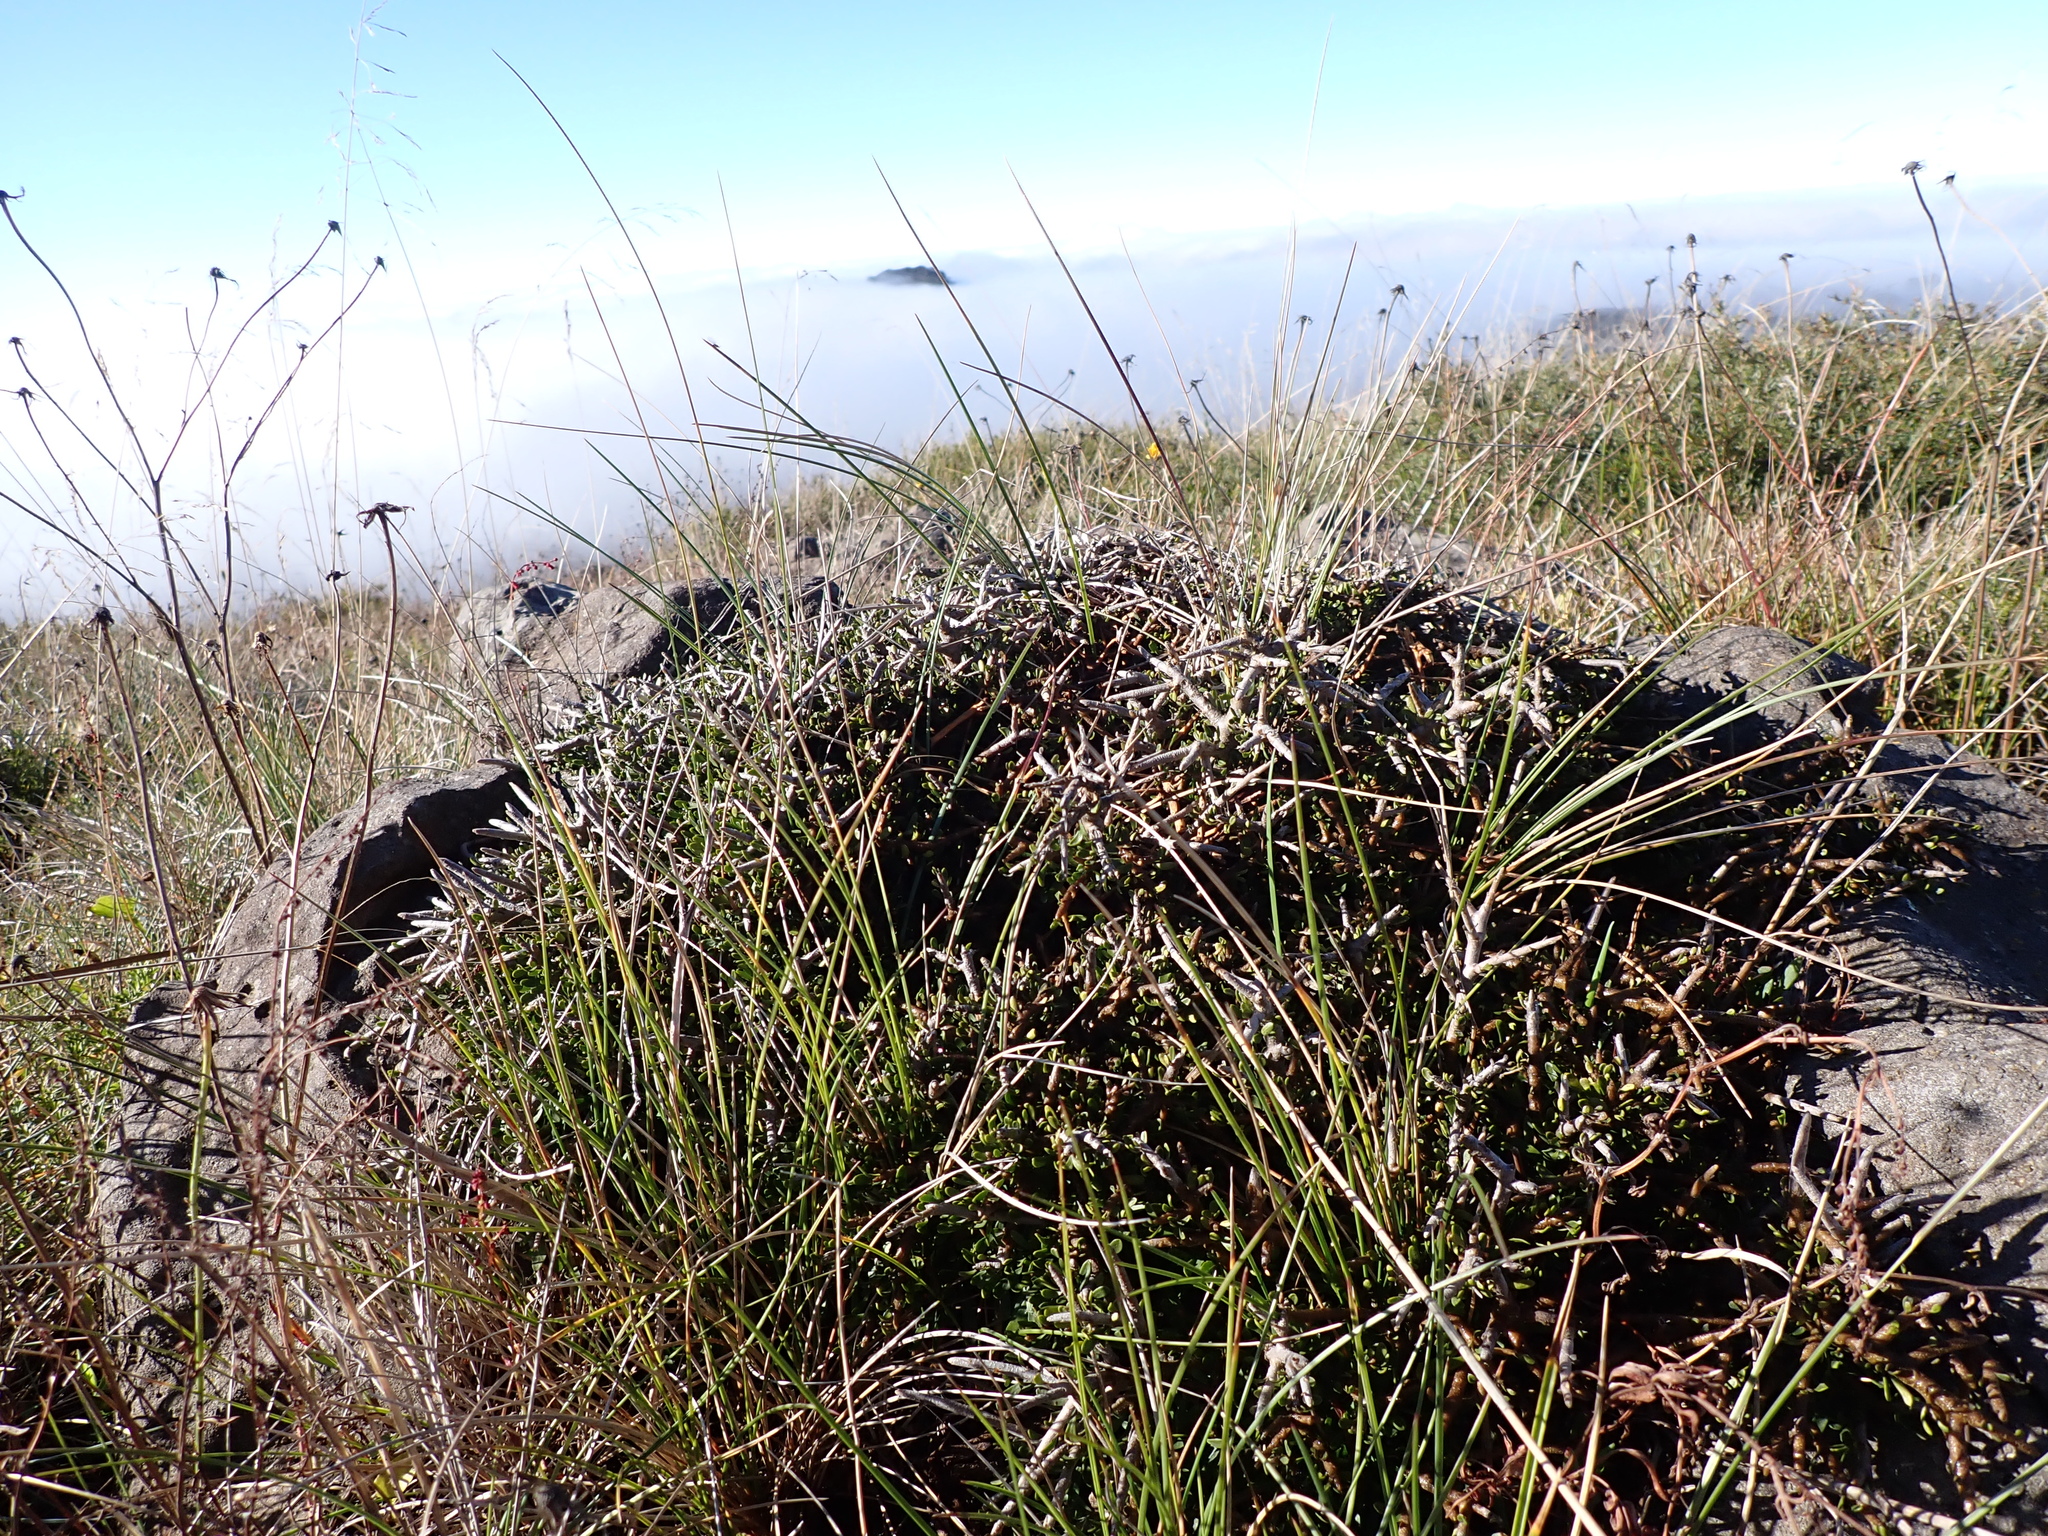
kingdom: Plantae
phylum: Tracheophyta
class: Magnoliopsida
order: Malpighiales
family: Violaceae
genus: Melicytus
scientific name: Melicytus angustifolius
